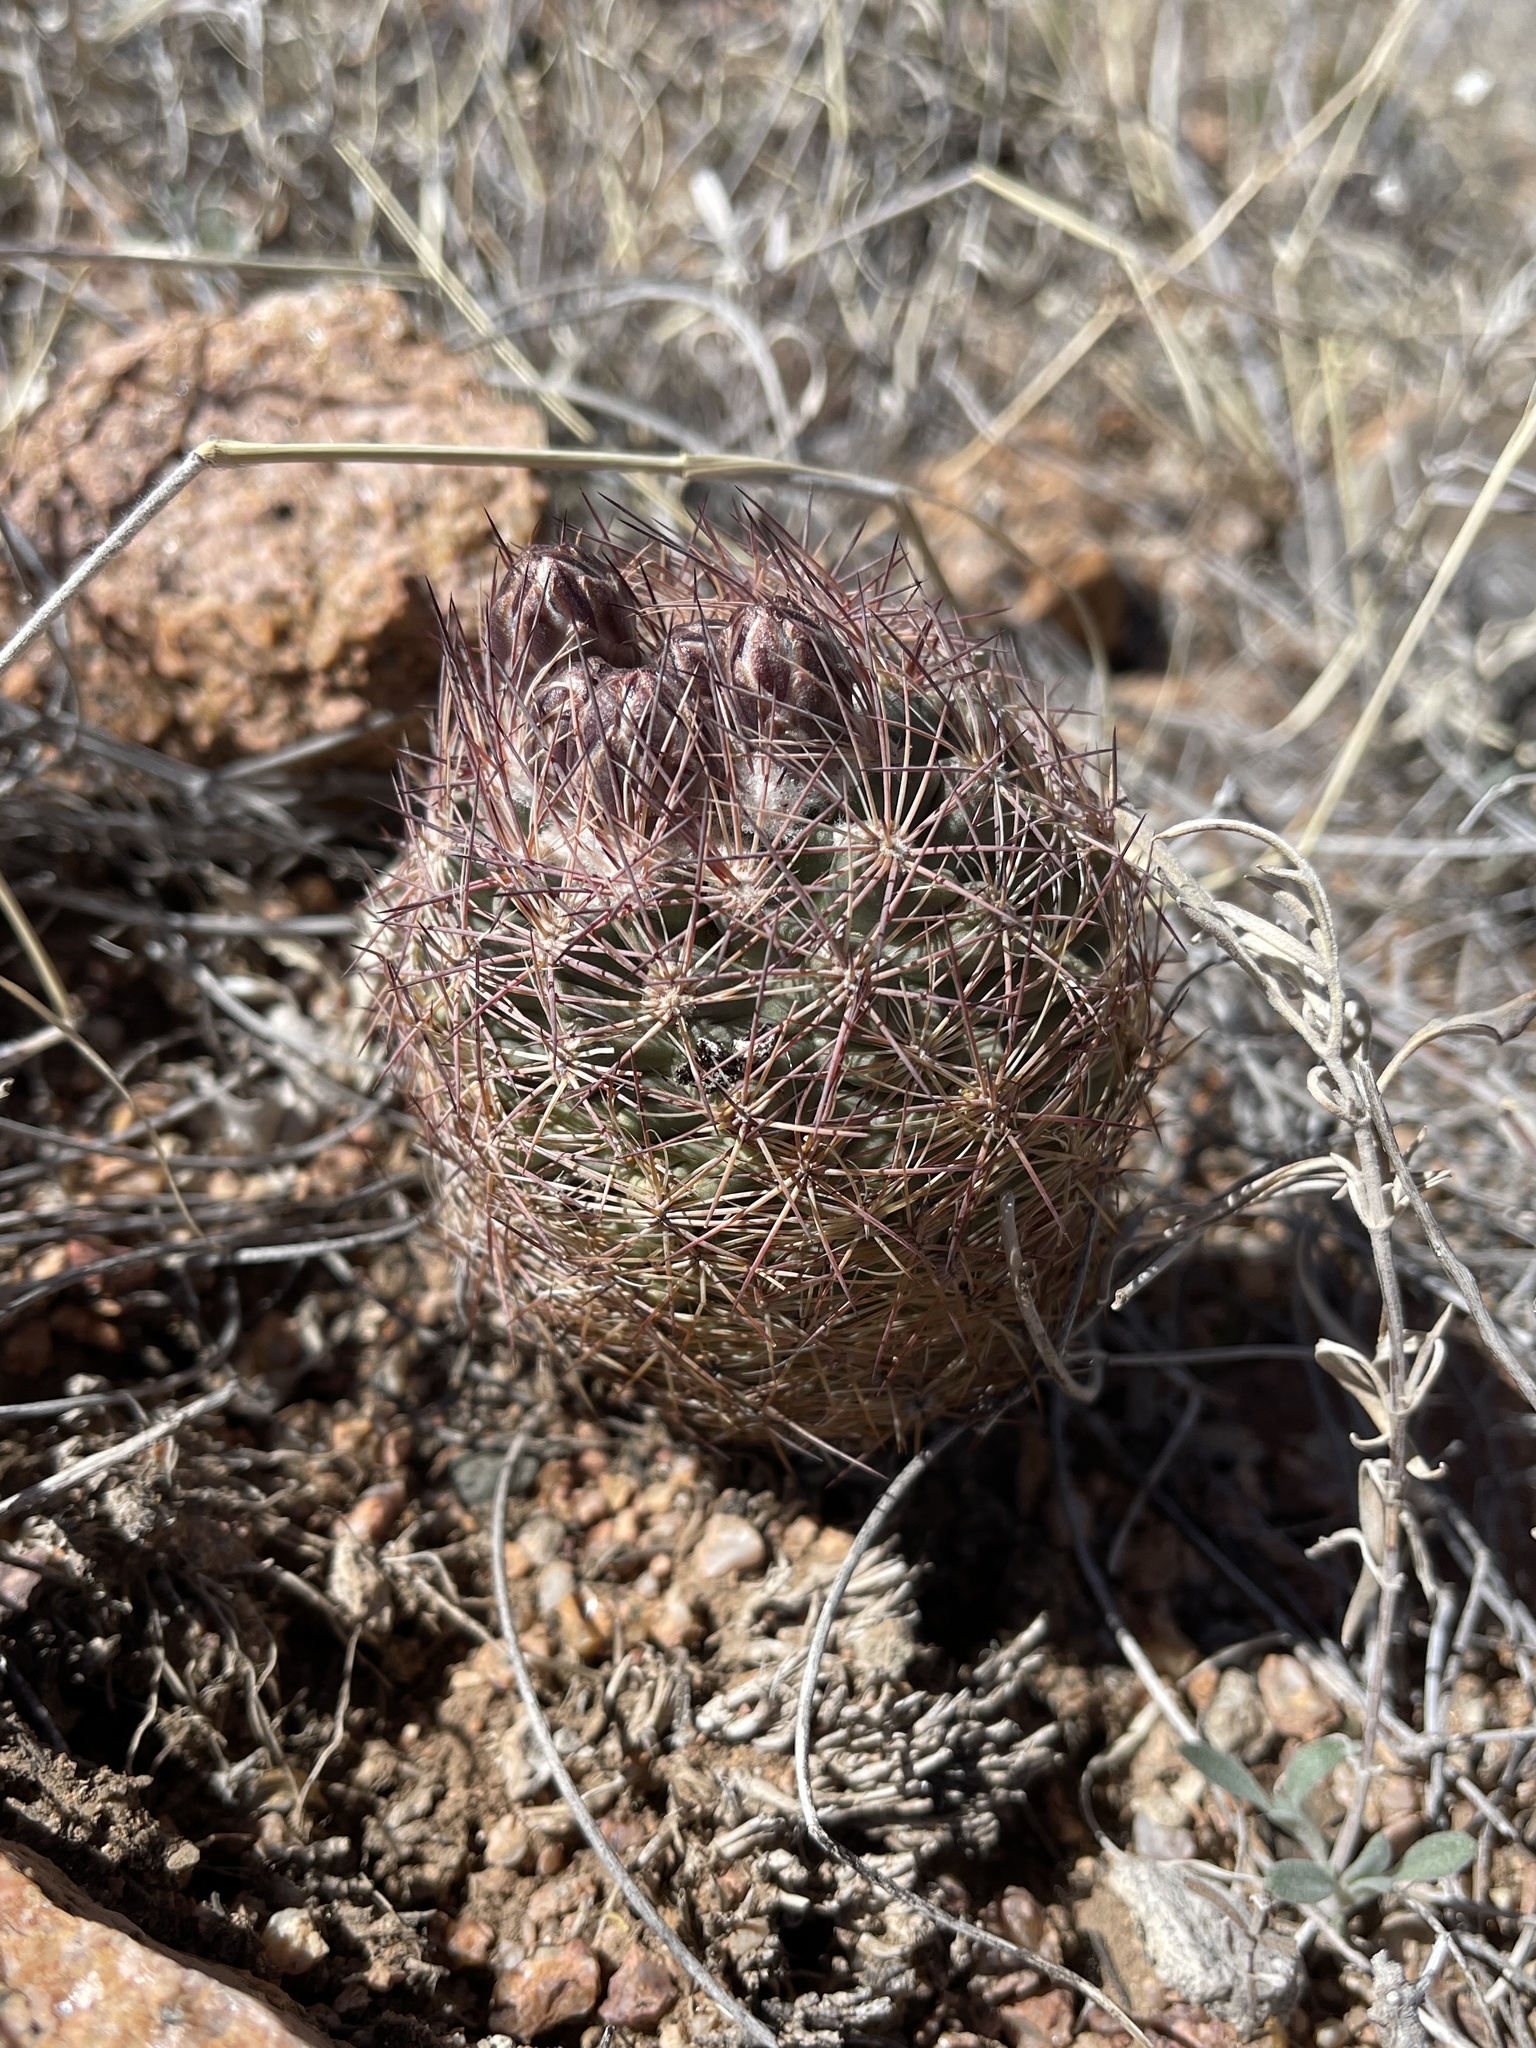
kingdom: Plantae
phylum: Tracheophyta
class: Magnoliopsida
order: Caryophyllales
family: Cactaceae
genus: Sclerocactus
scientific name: Sclerocactus intertextus
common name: White fish-hook cactus
